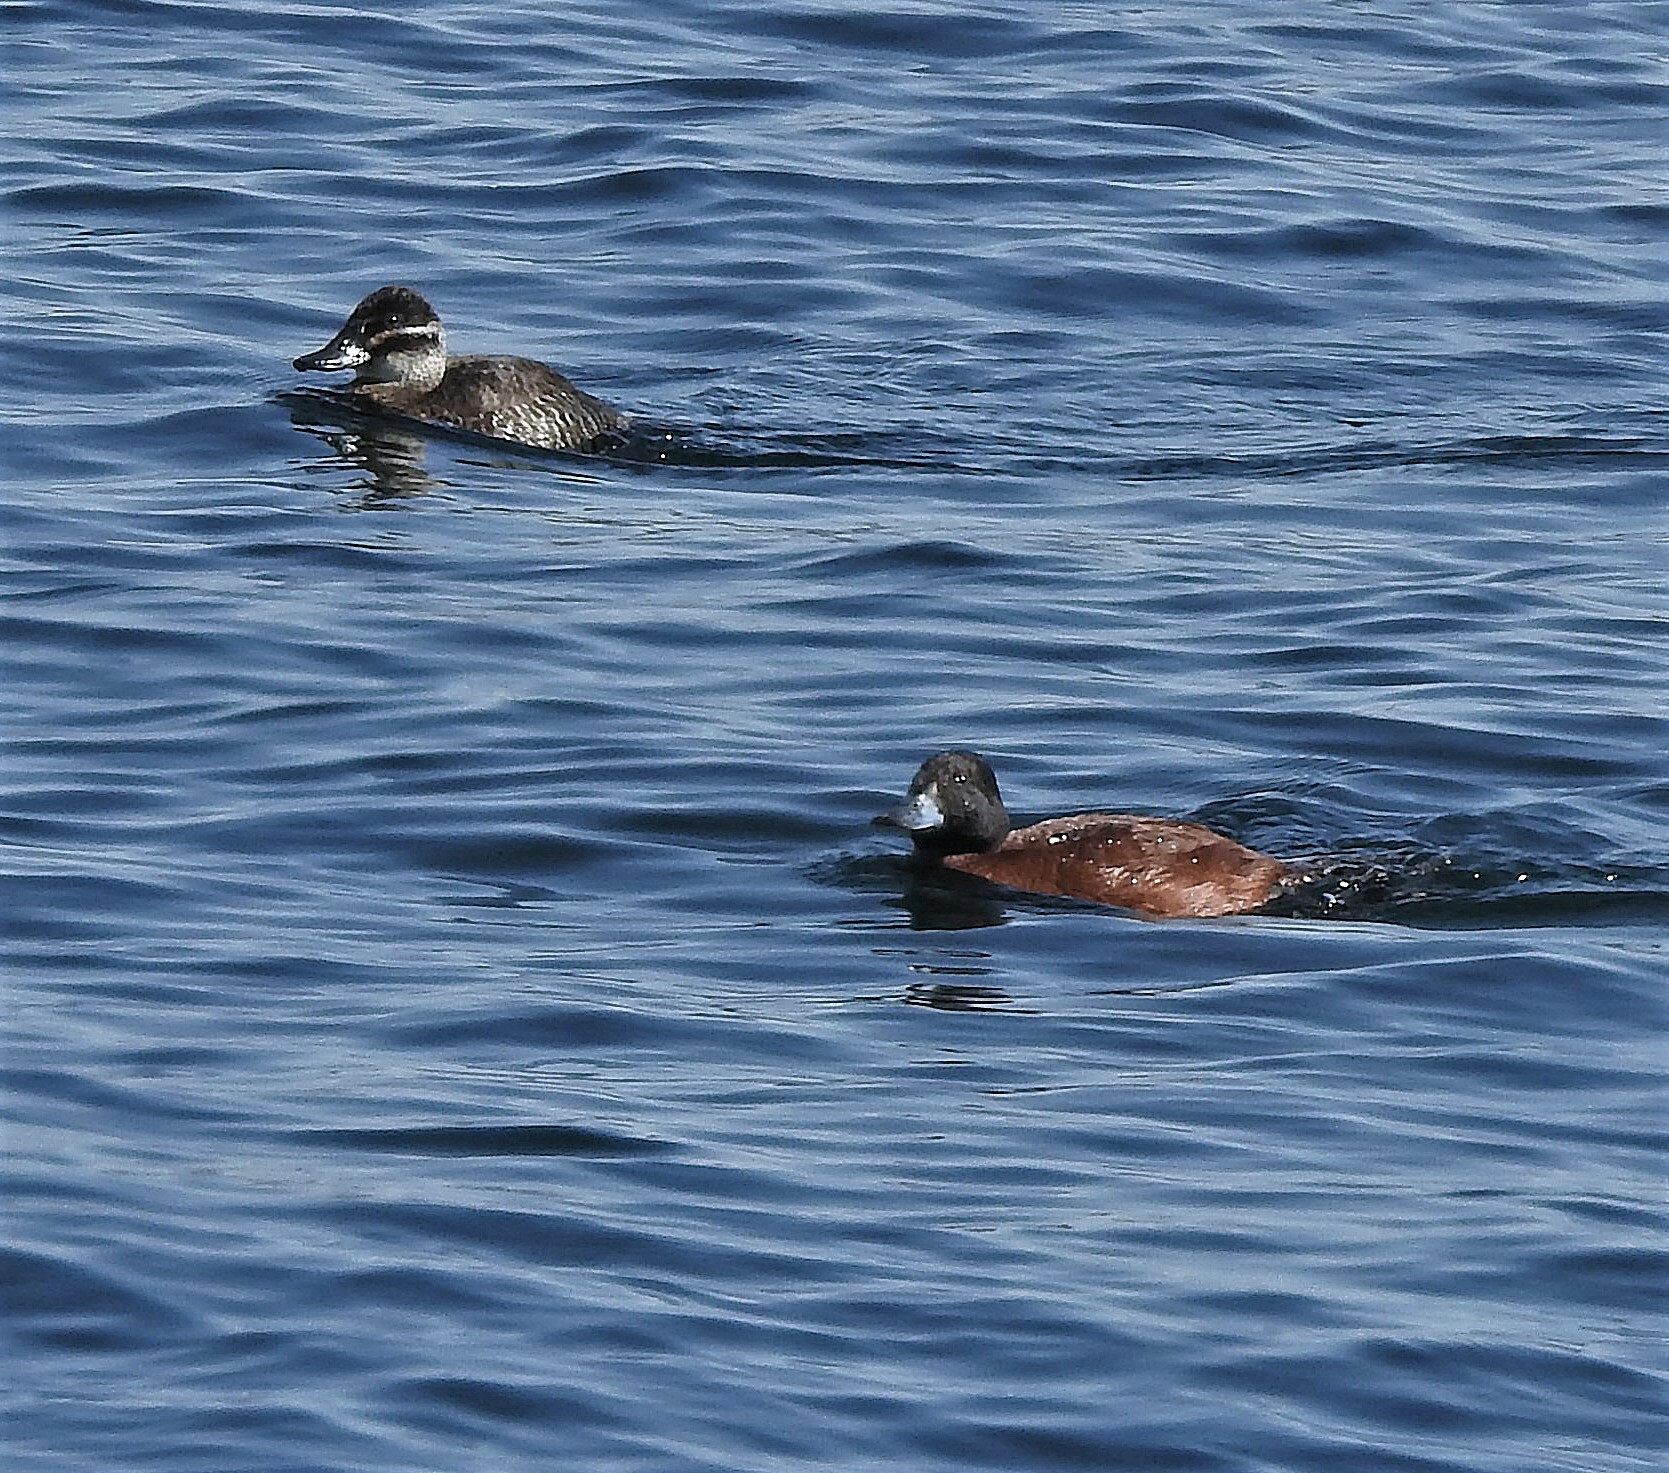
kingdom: Animalia
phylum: Chordata
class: Aves
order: Anseriformes
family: Anatidae
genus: Oxyura
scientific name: Oxyura vittata
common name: Lake duck
